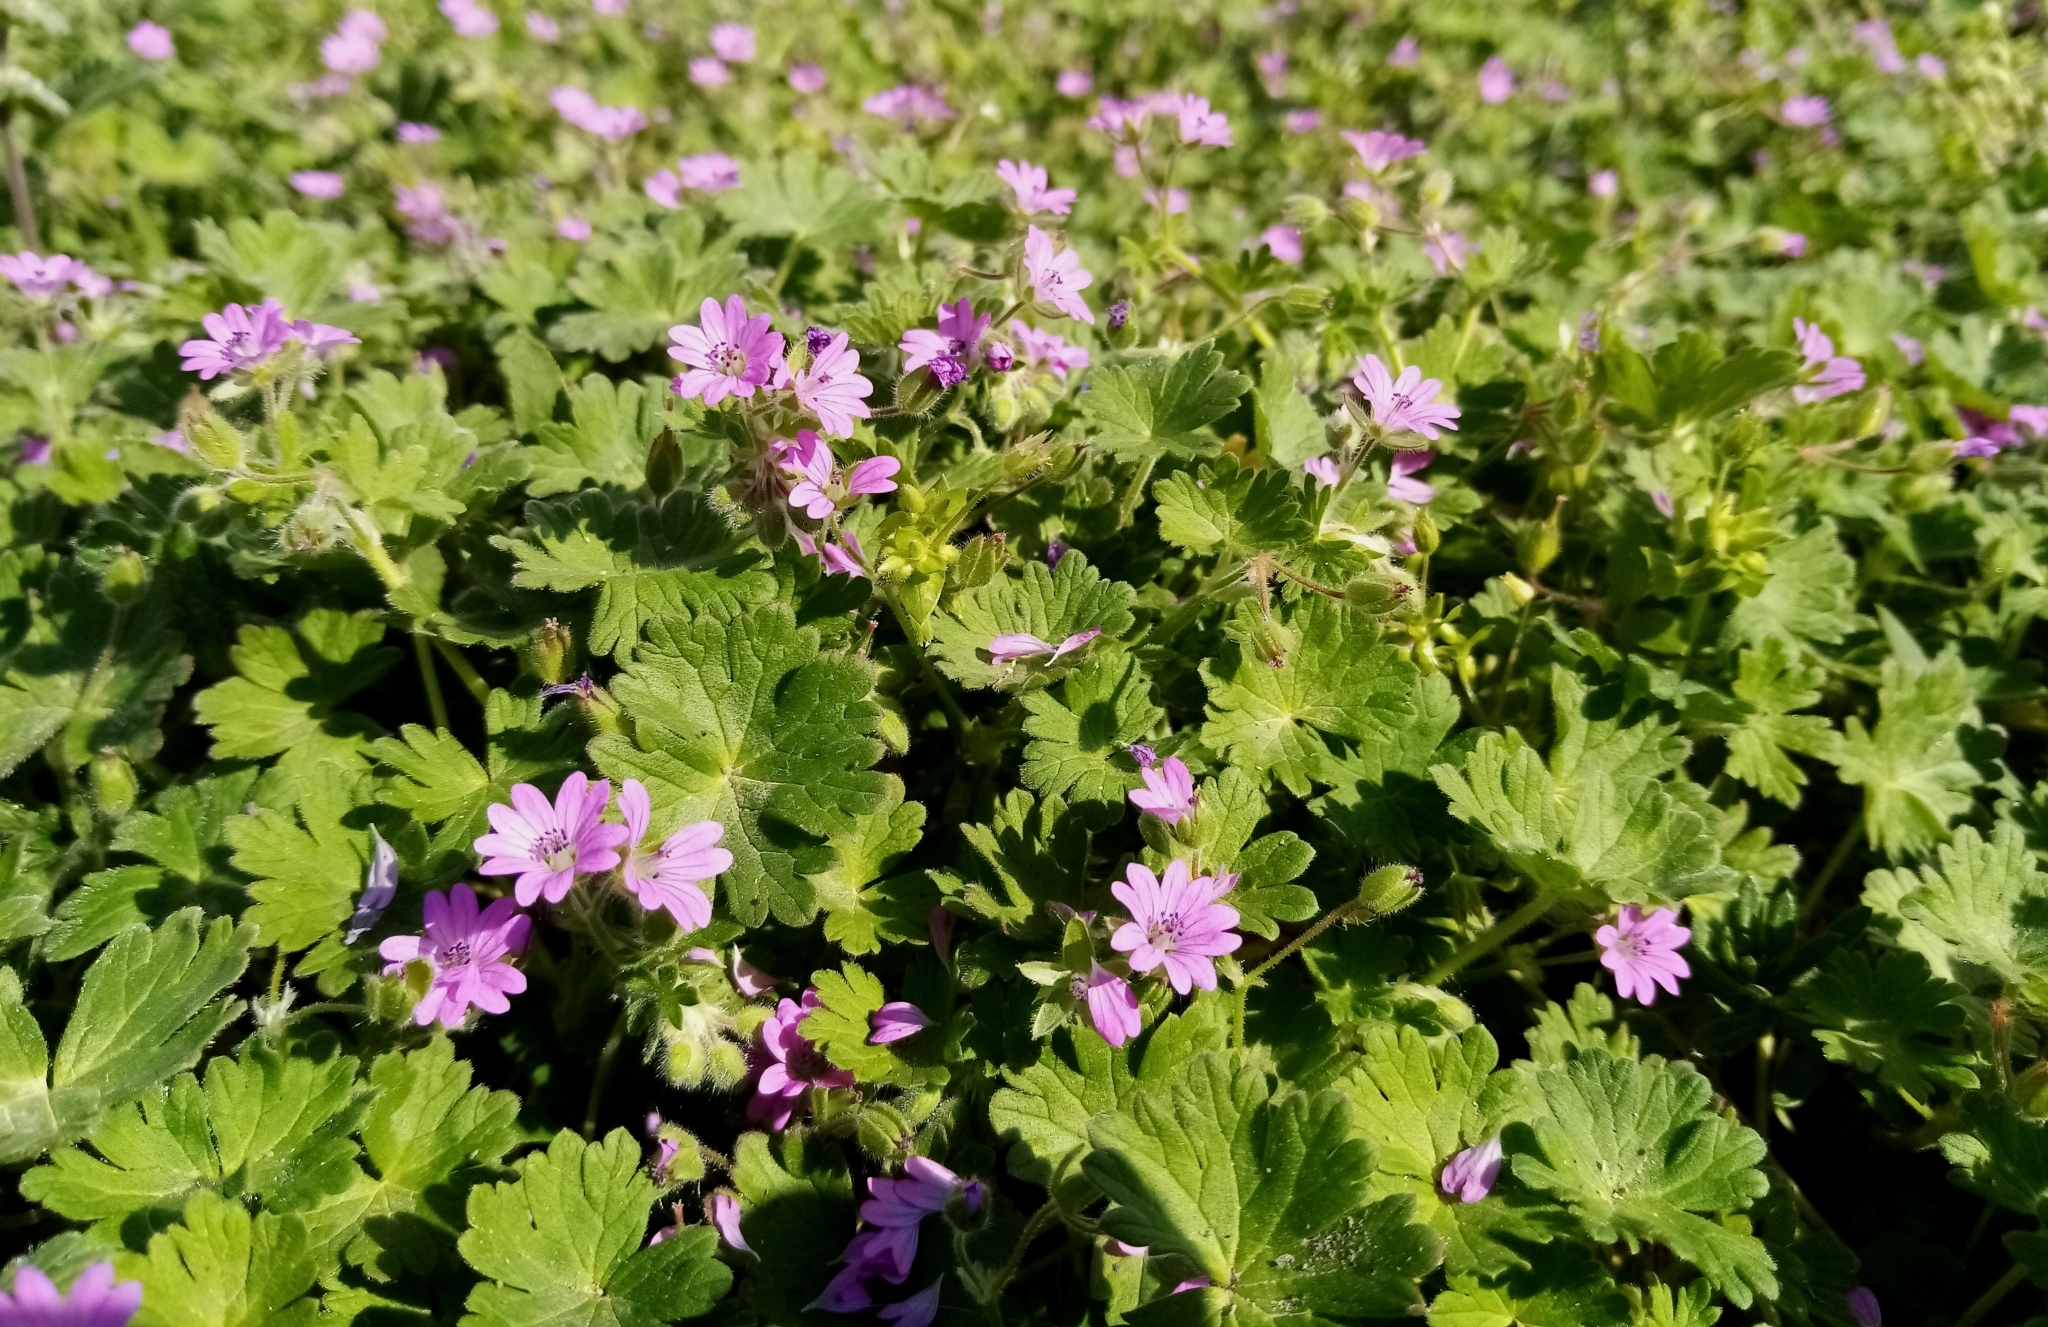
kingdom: Plantae
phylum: Tracheophyta
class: Magnoliopsida
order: Geraniales
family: Geraniaceae
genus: Geranium
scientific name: Geranium molle
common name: Dove's-foot crane's-bill
